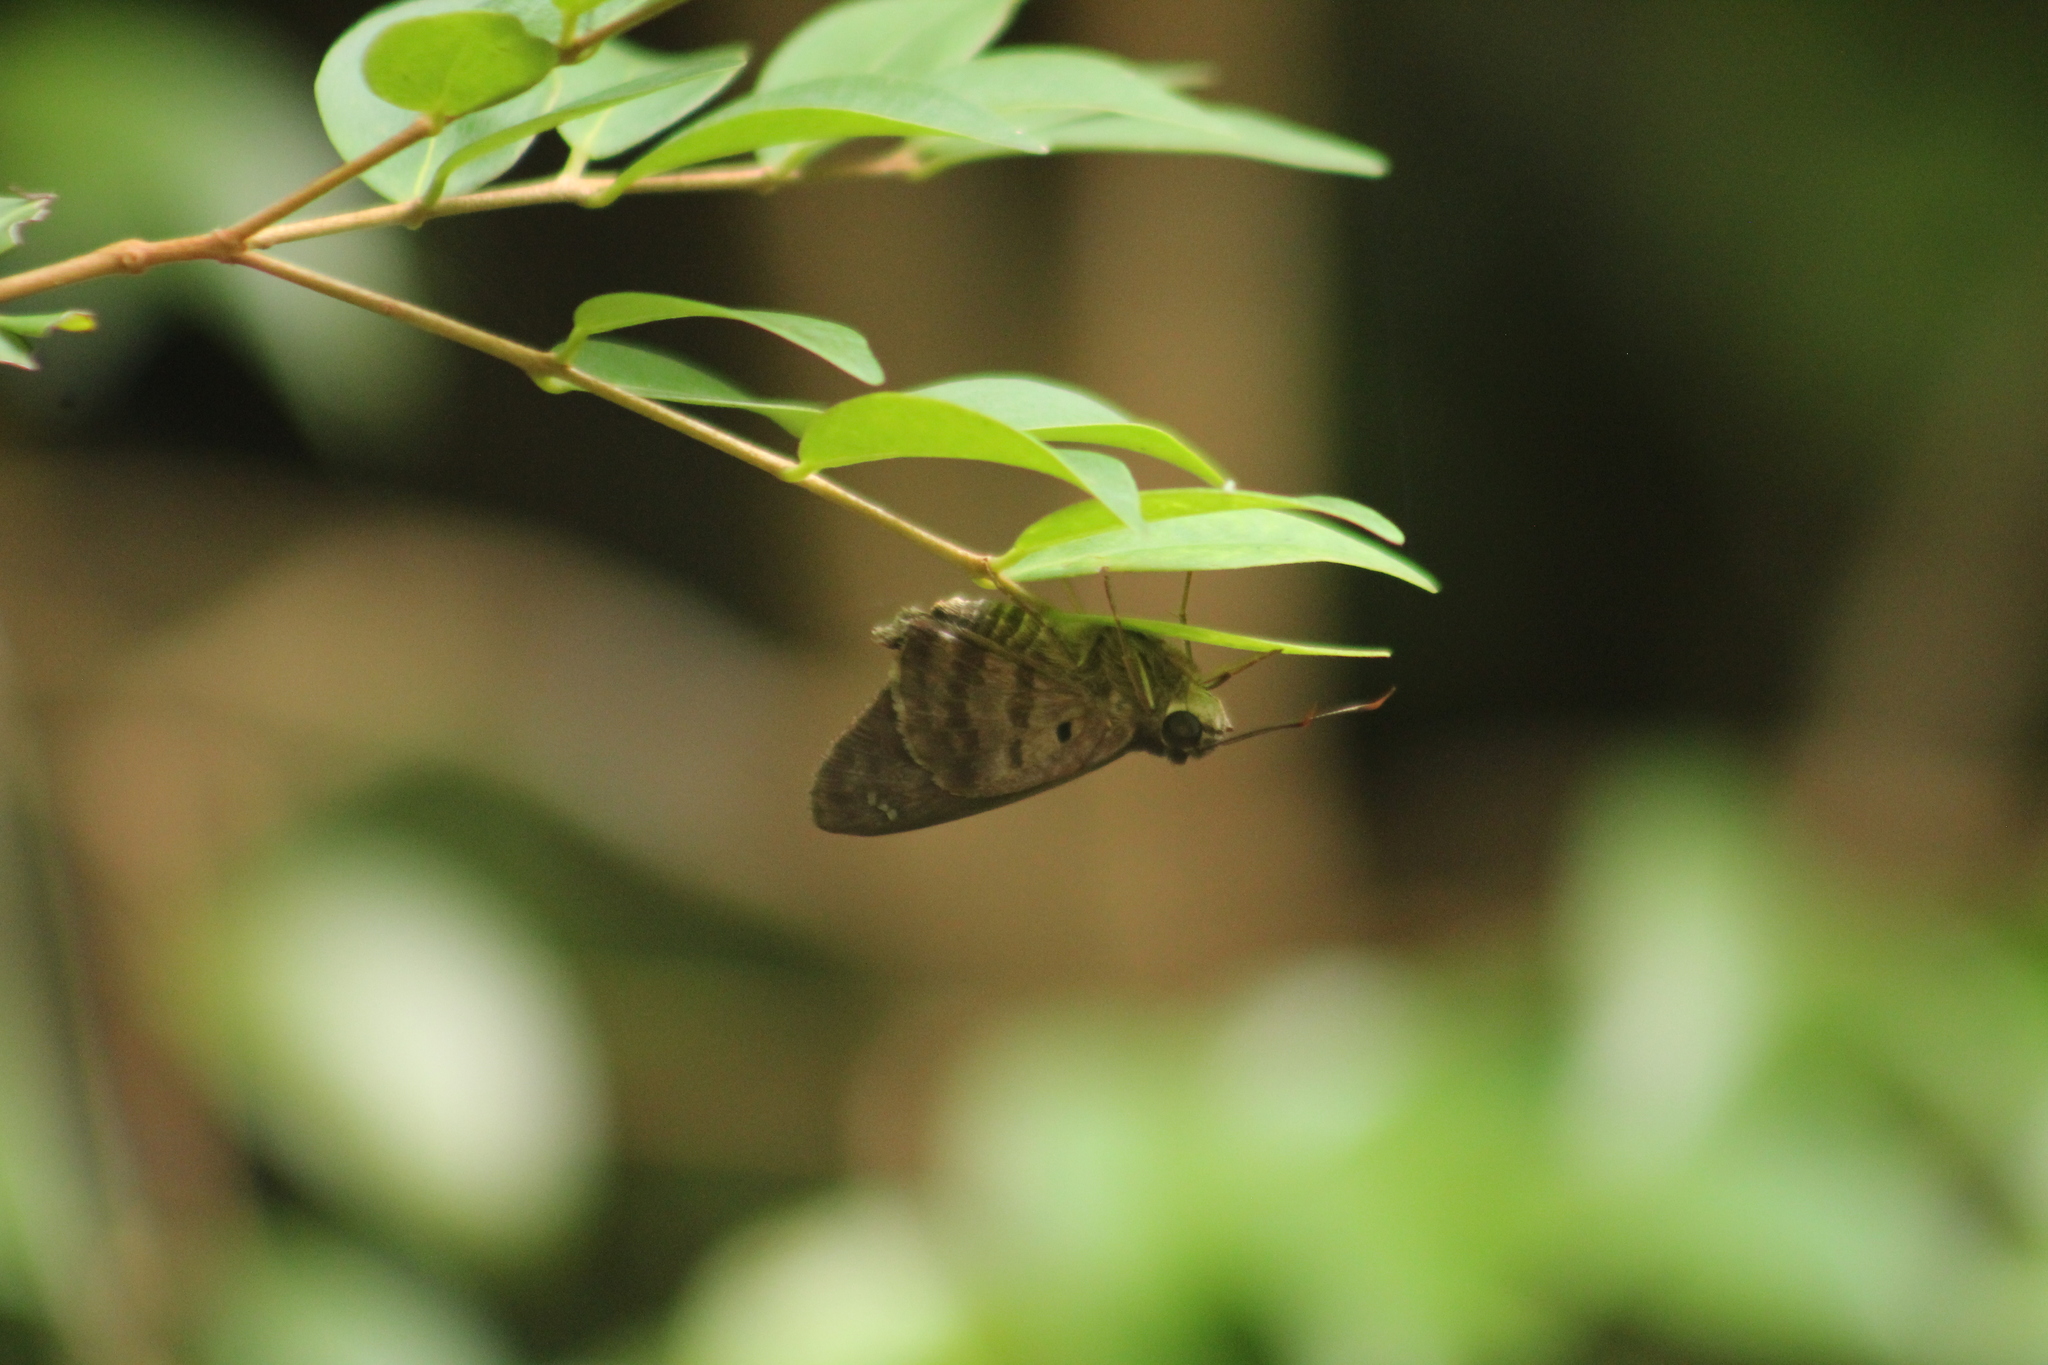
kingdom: Animalia
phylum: Arthropoda
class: Insecta
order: Lepidoptera
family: Hesperiidae
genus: Polygonus
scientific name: Polygonus leo
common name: Hammoch skipper
